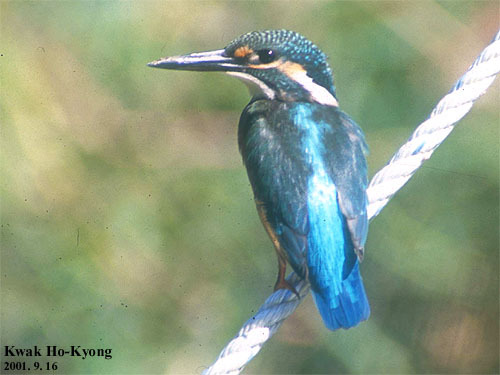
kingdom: Animalia
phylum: Chordata
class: Aves
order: Coraciiformes
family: Alcedinidae
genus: Alcedo
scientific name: Alcedo atthis
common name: Common kingfisher
